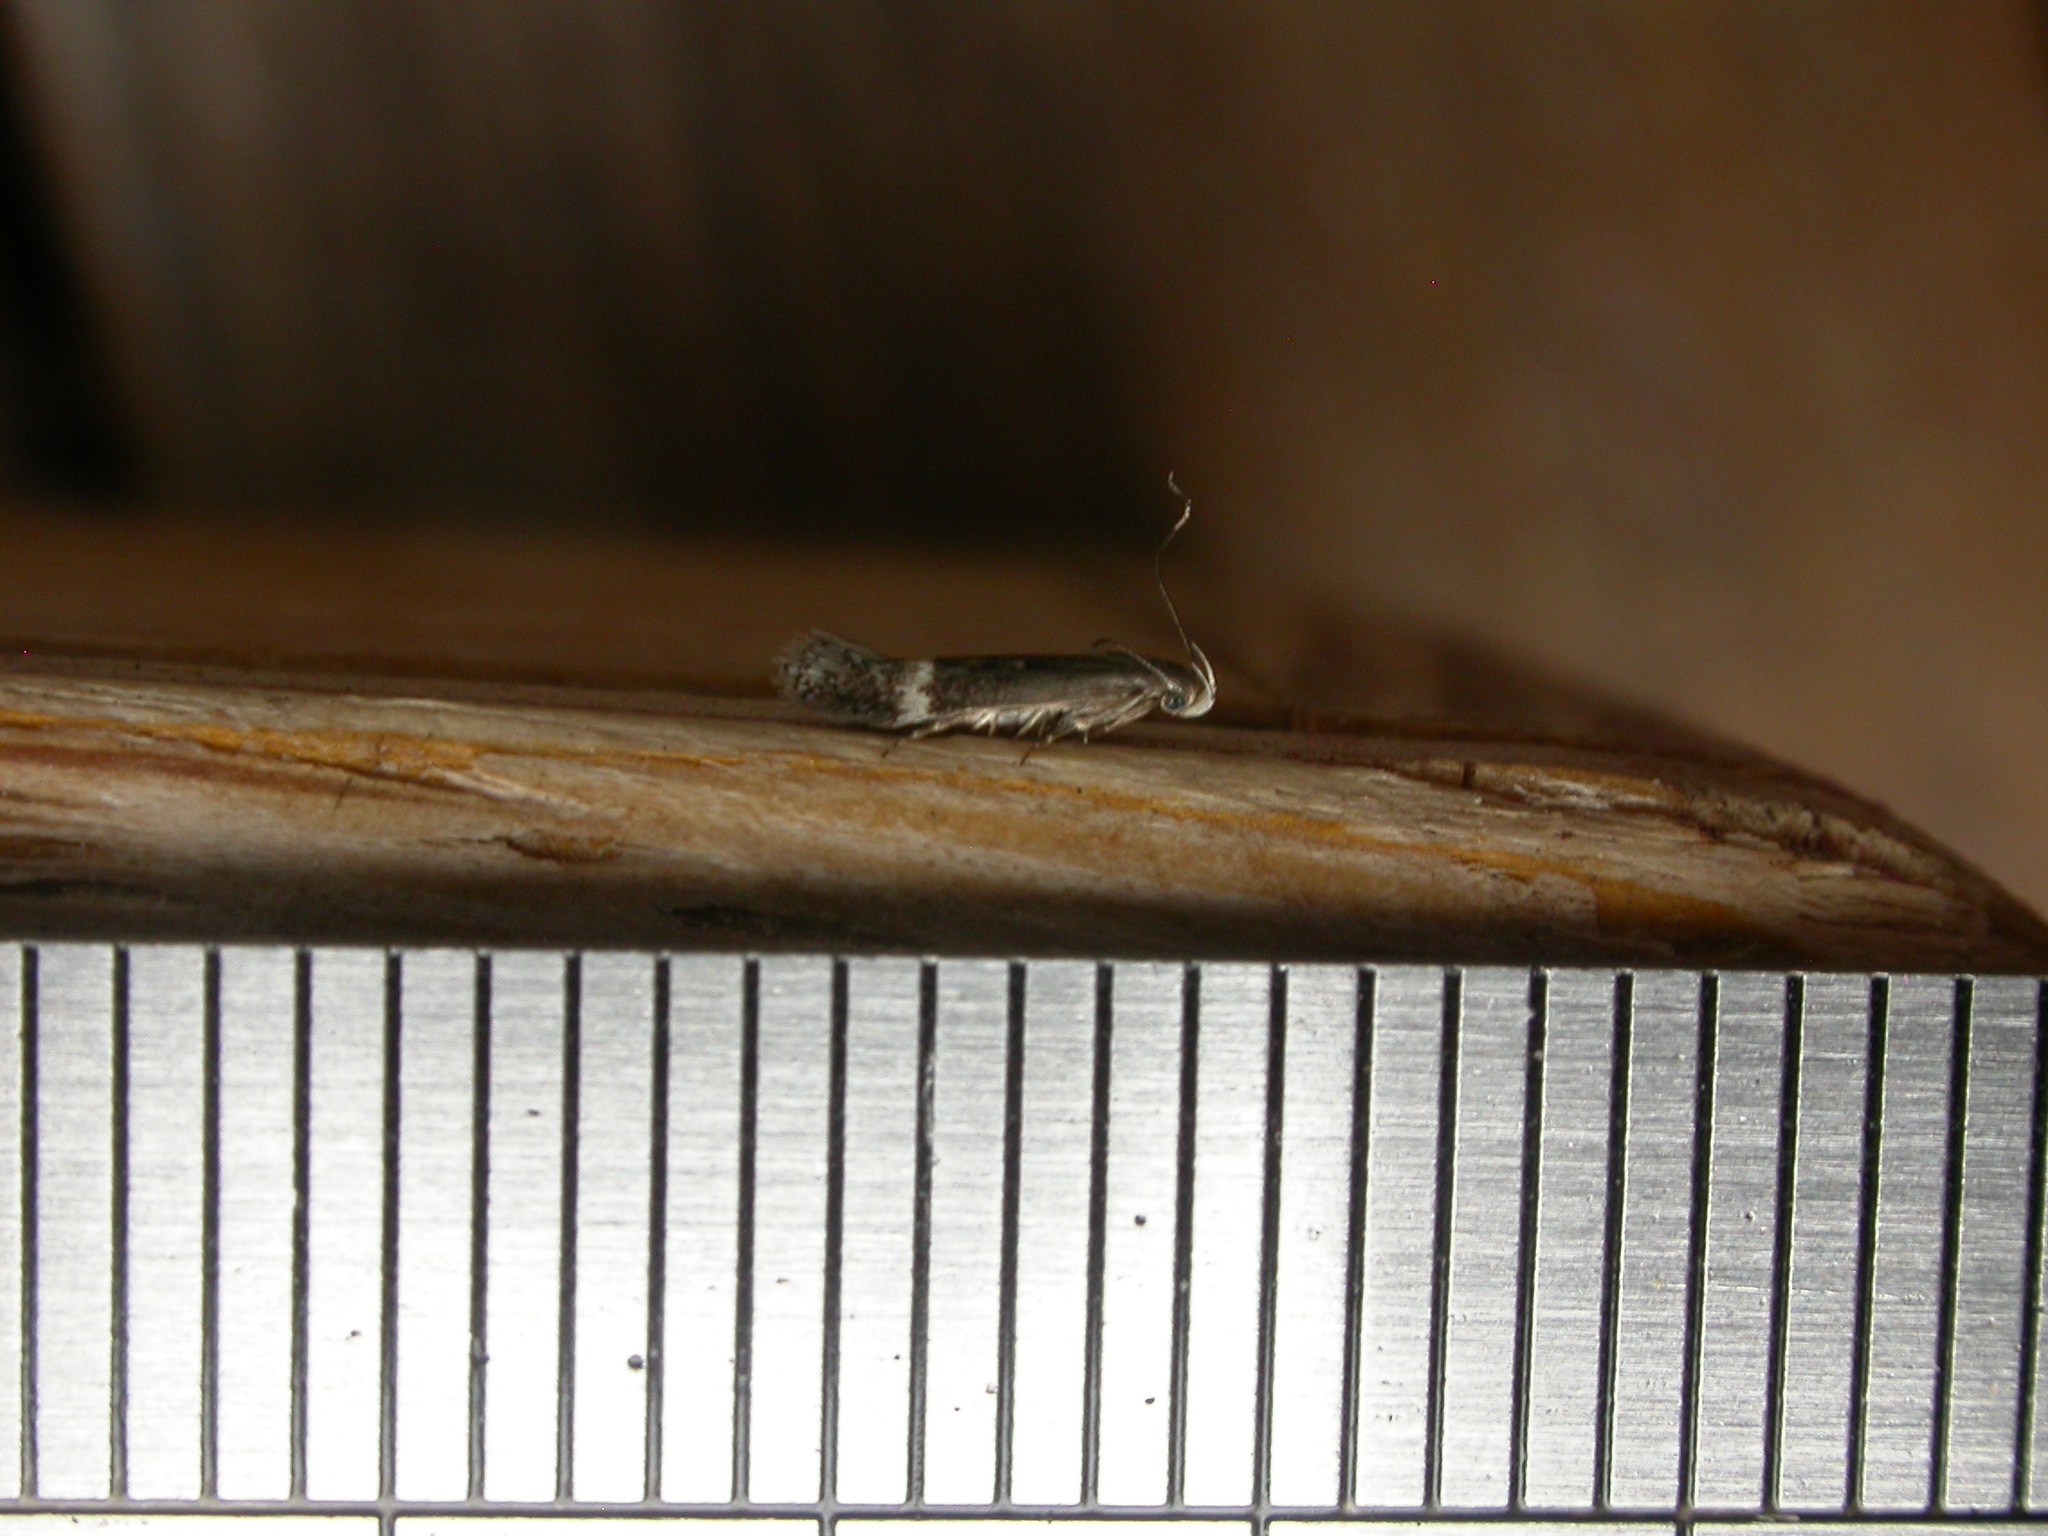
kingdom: Animalia
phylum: Arthropoda
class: Insecta
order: Lepidoptera
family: Gelechiidae
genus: Aproaerema
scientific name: Aproaerema simplexella
